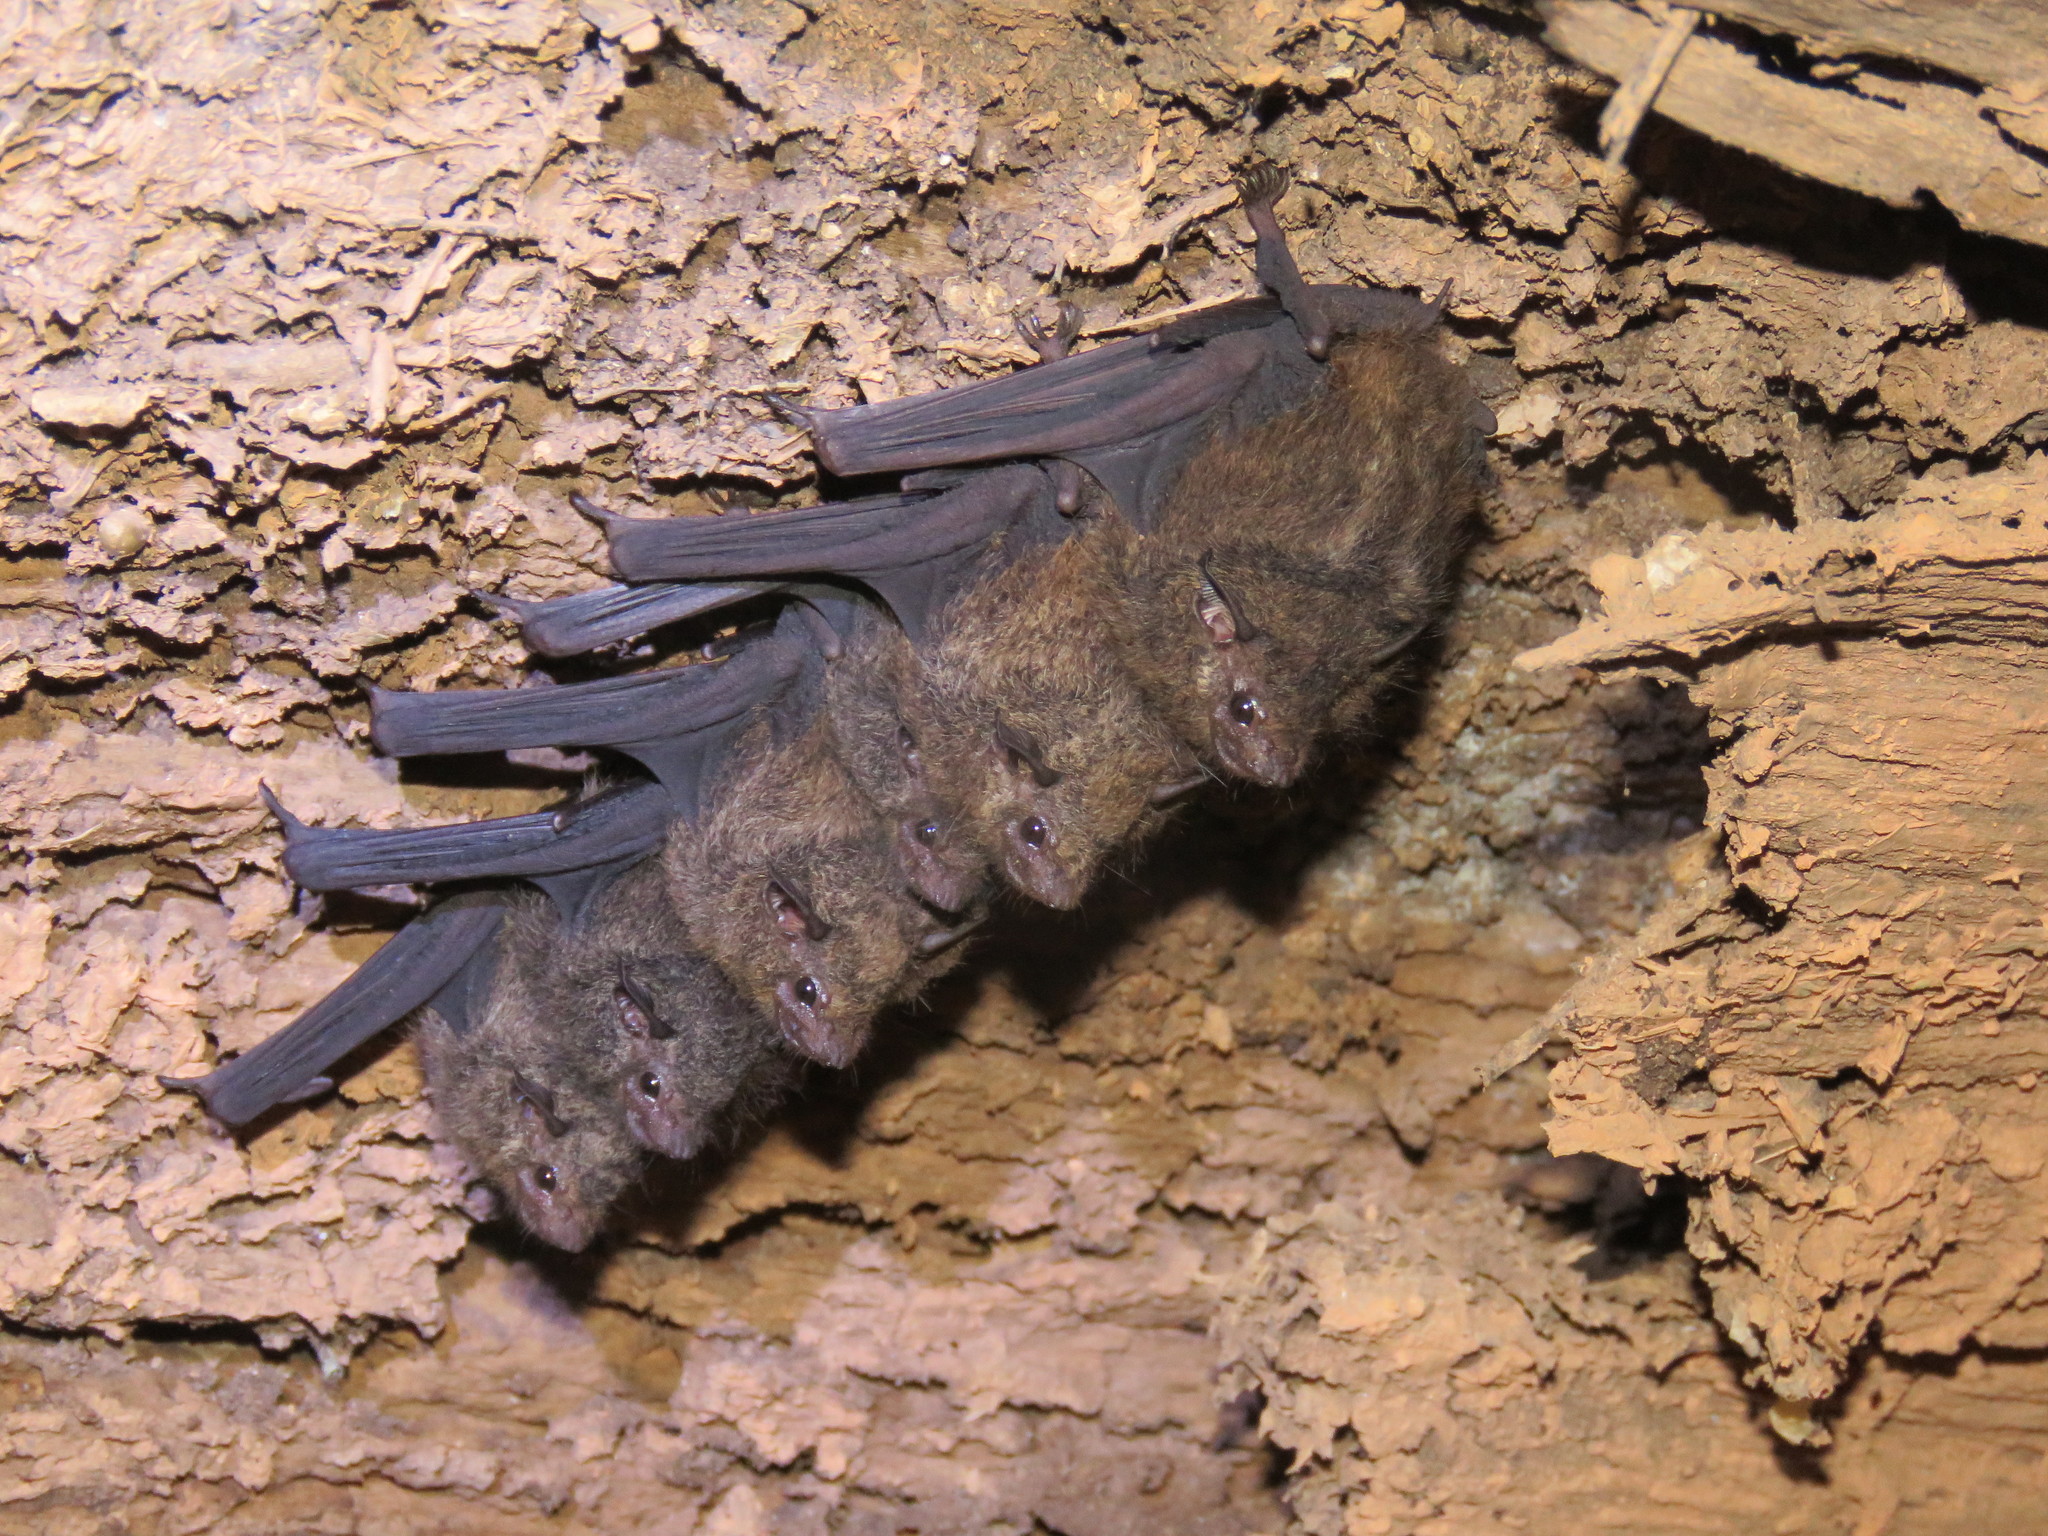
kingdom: Animalia
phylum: Chordata
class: Mammalia
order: Chiroptera
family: Emballonuridae
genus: Saccopteryx
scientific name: Saccopteryx canescens
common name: Frosted sac-winged bat
